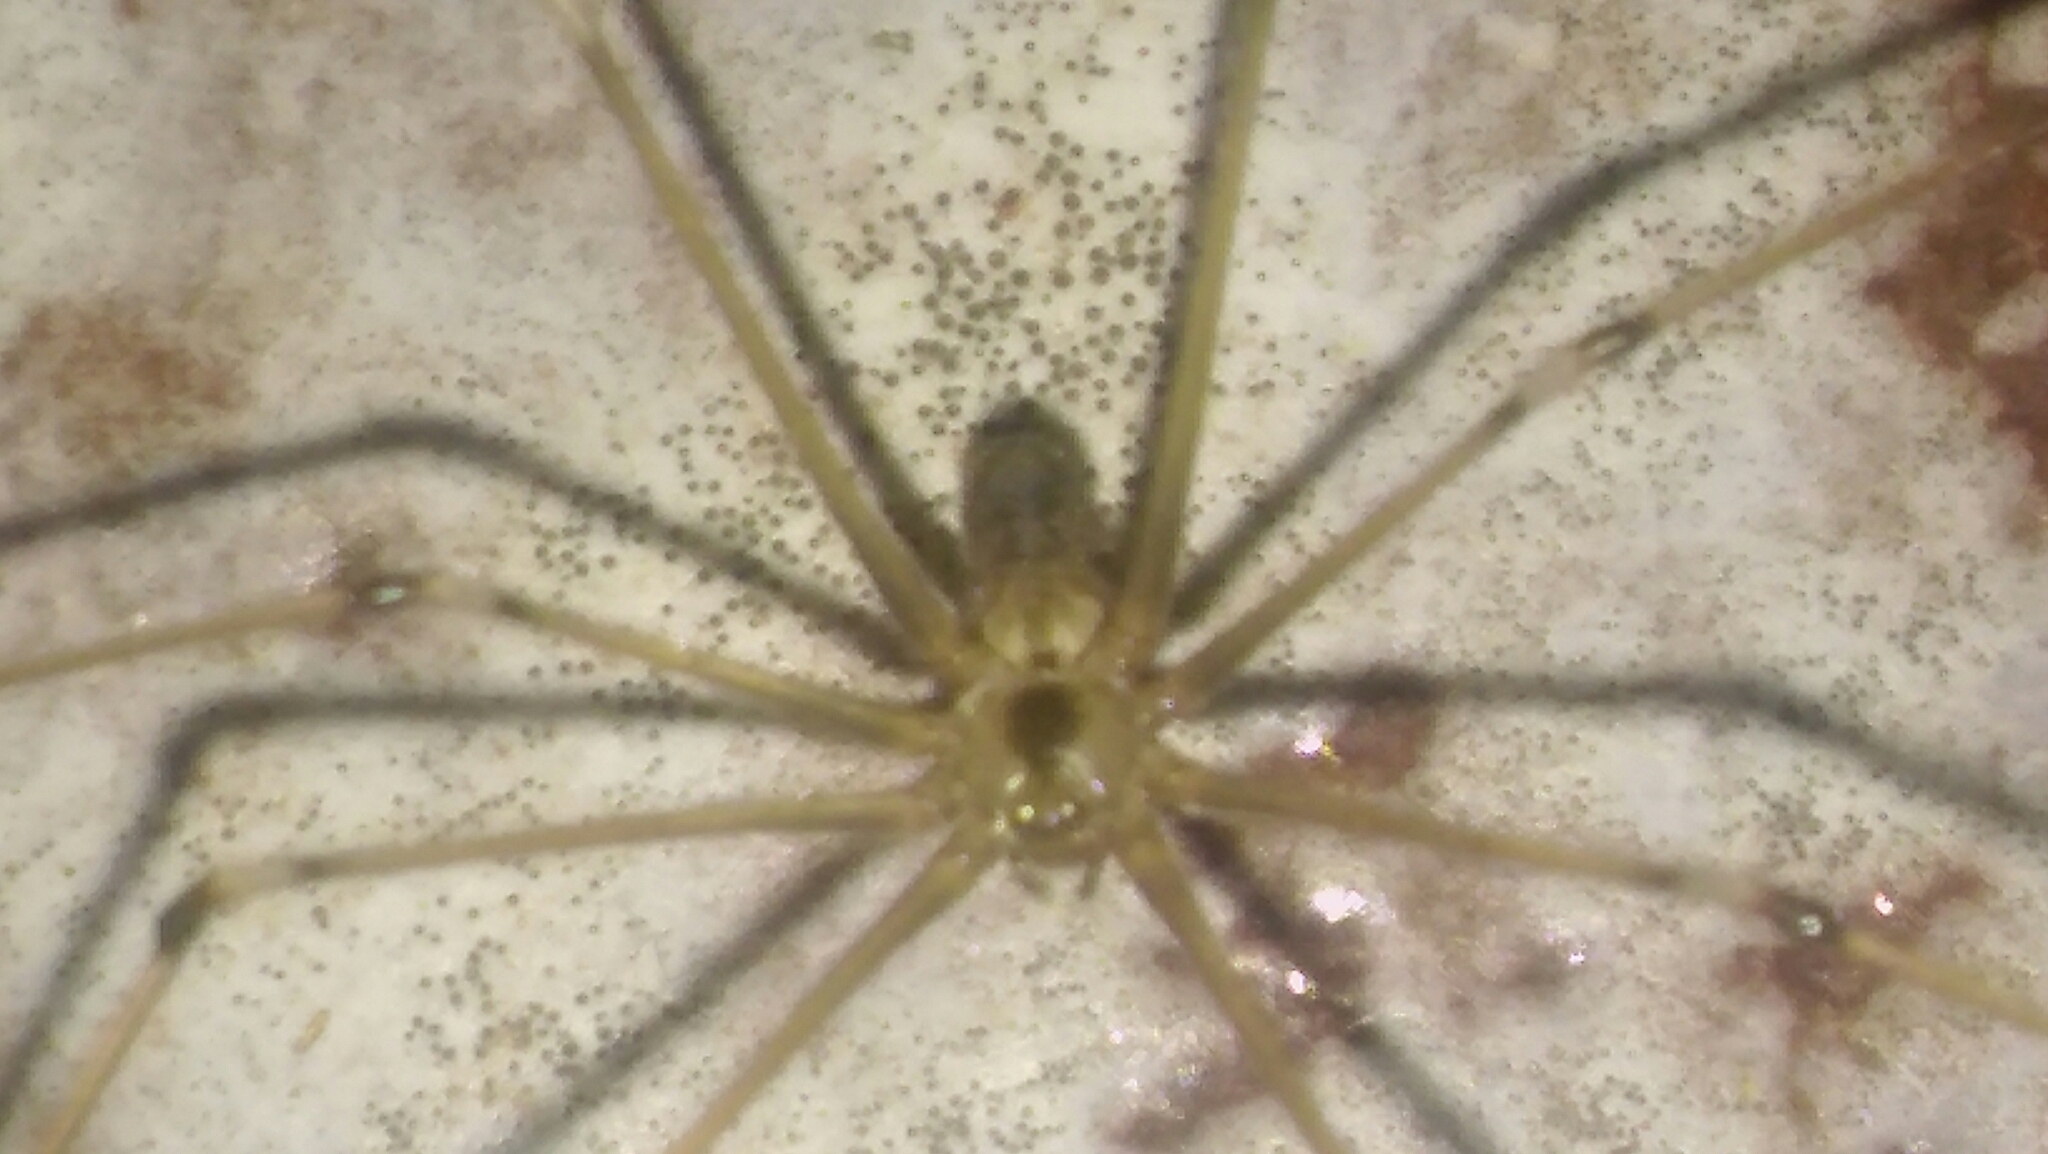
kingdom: Animalia
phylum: Arthropoda
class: Arachnida
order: Araneae
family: Pholcidae
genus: Pholcus
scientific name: Pholcus phalangioides
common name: Longbodied cellar spider
